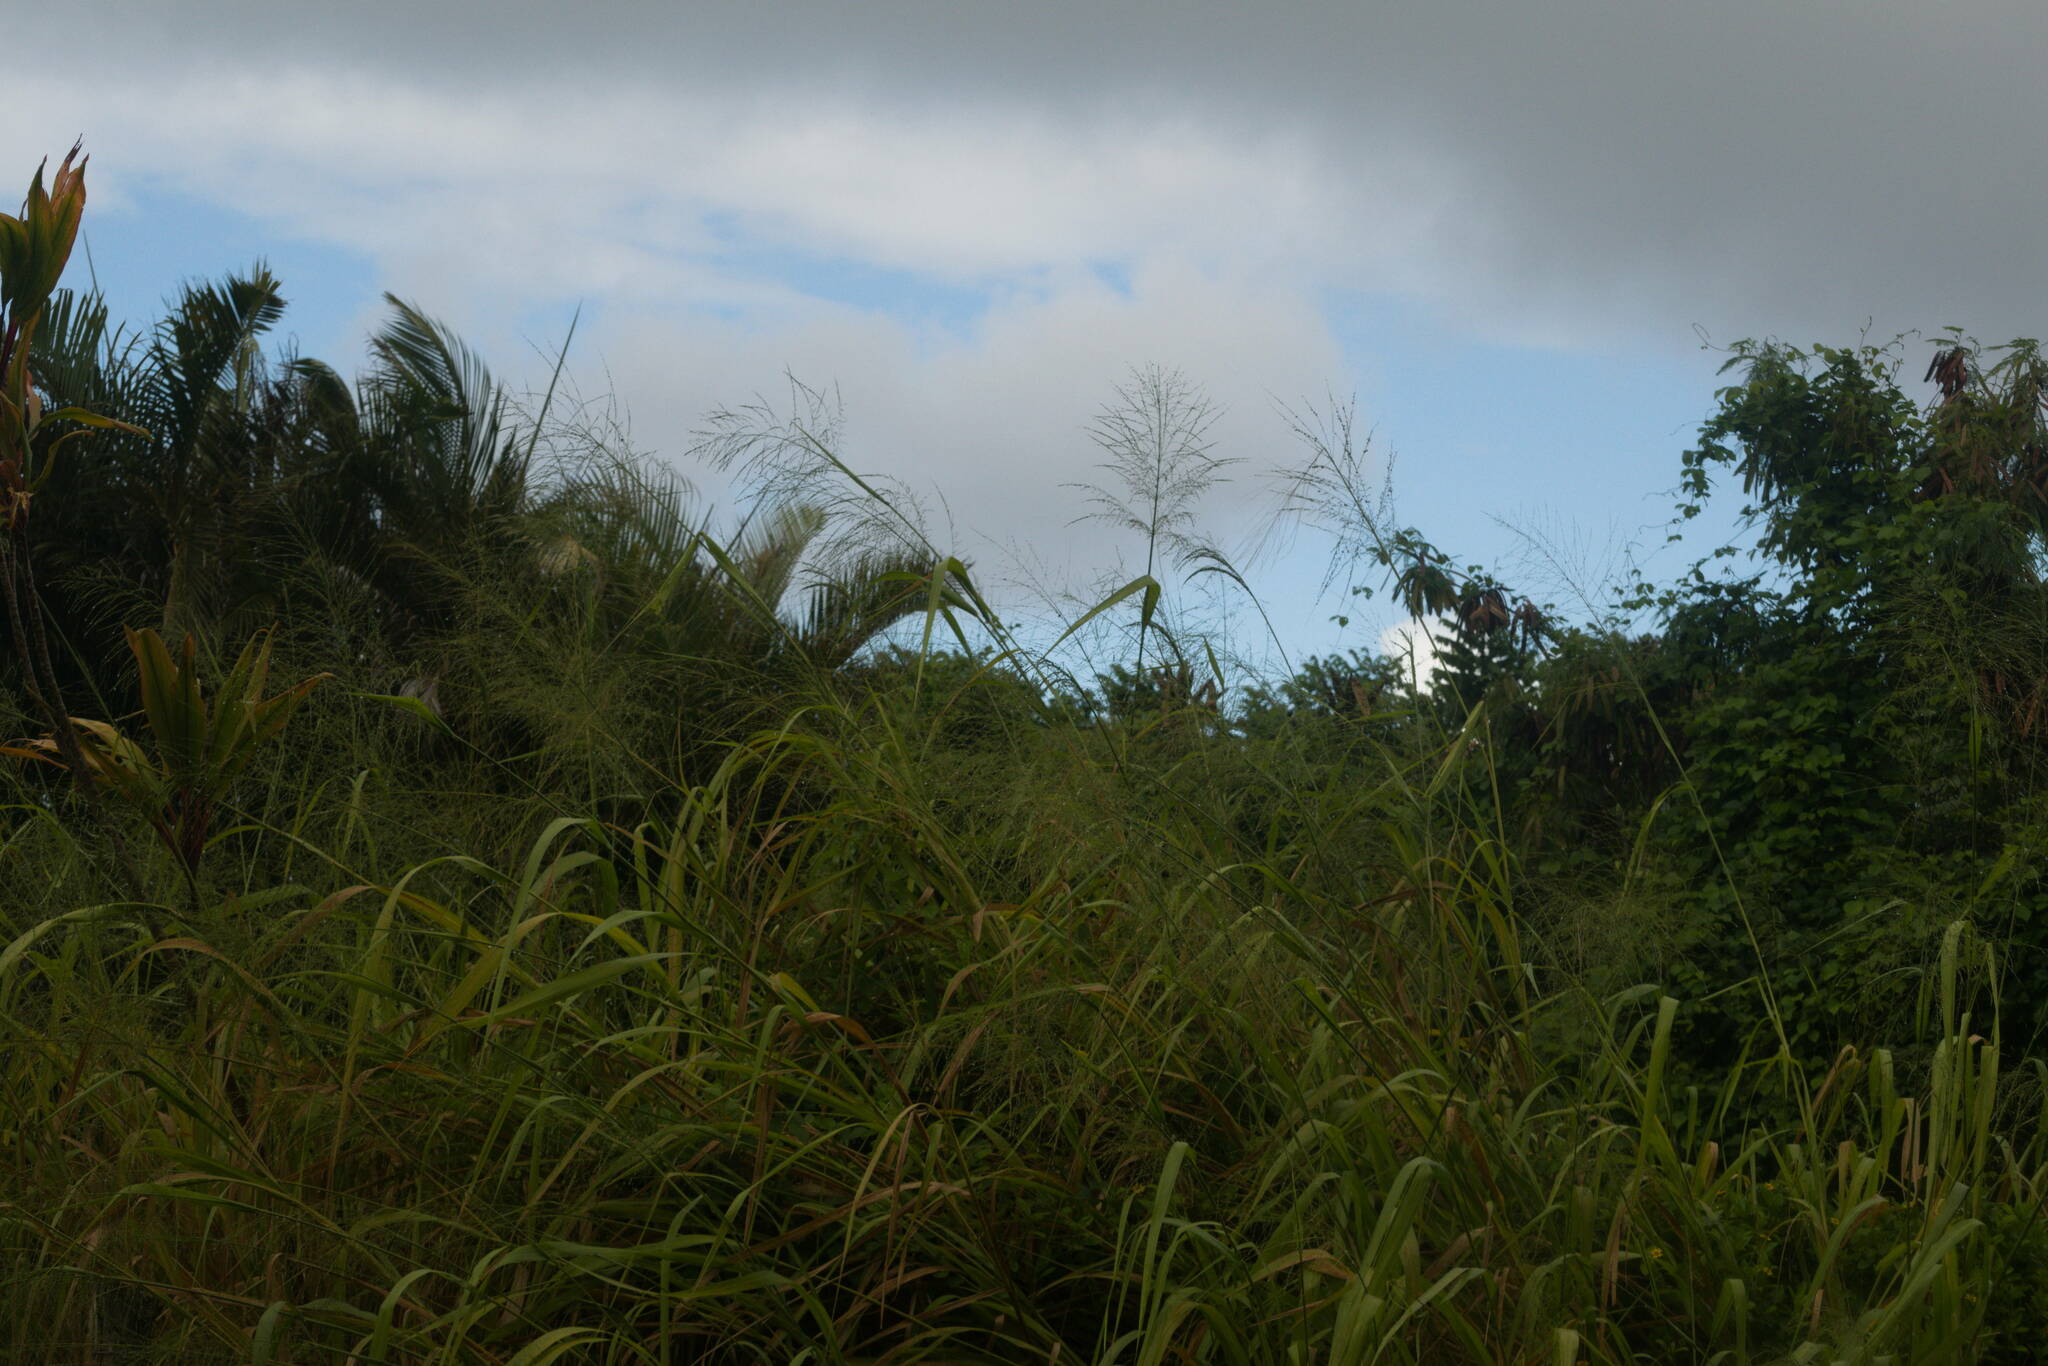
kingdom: Plantae
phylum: Tracheophyta
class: Liliopsida
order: Poales
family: Poaceae
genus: Megathyrsus
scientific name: Megathyrsus maximus
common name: Guineagrass
